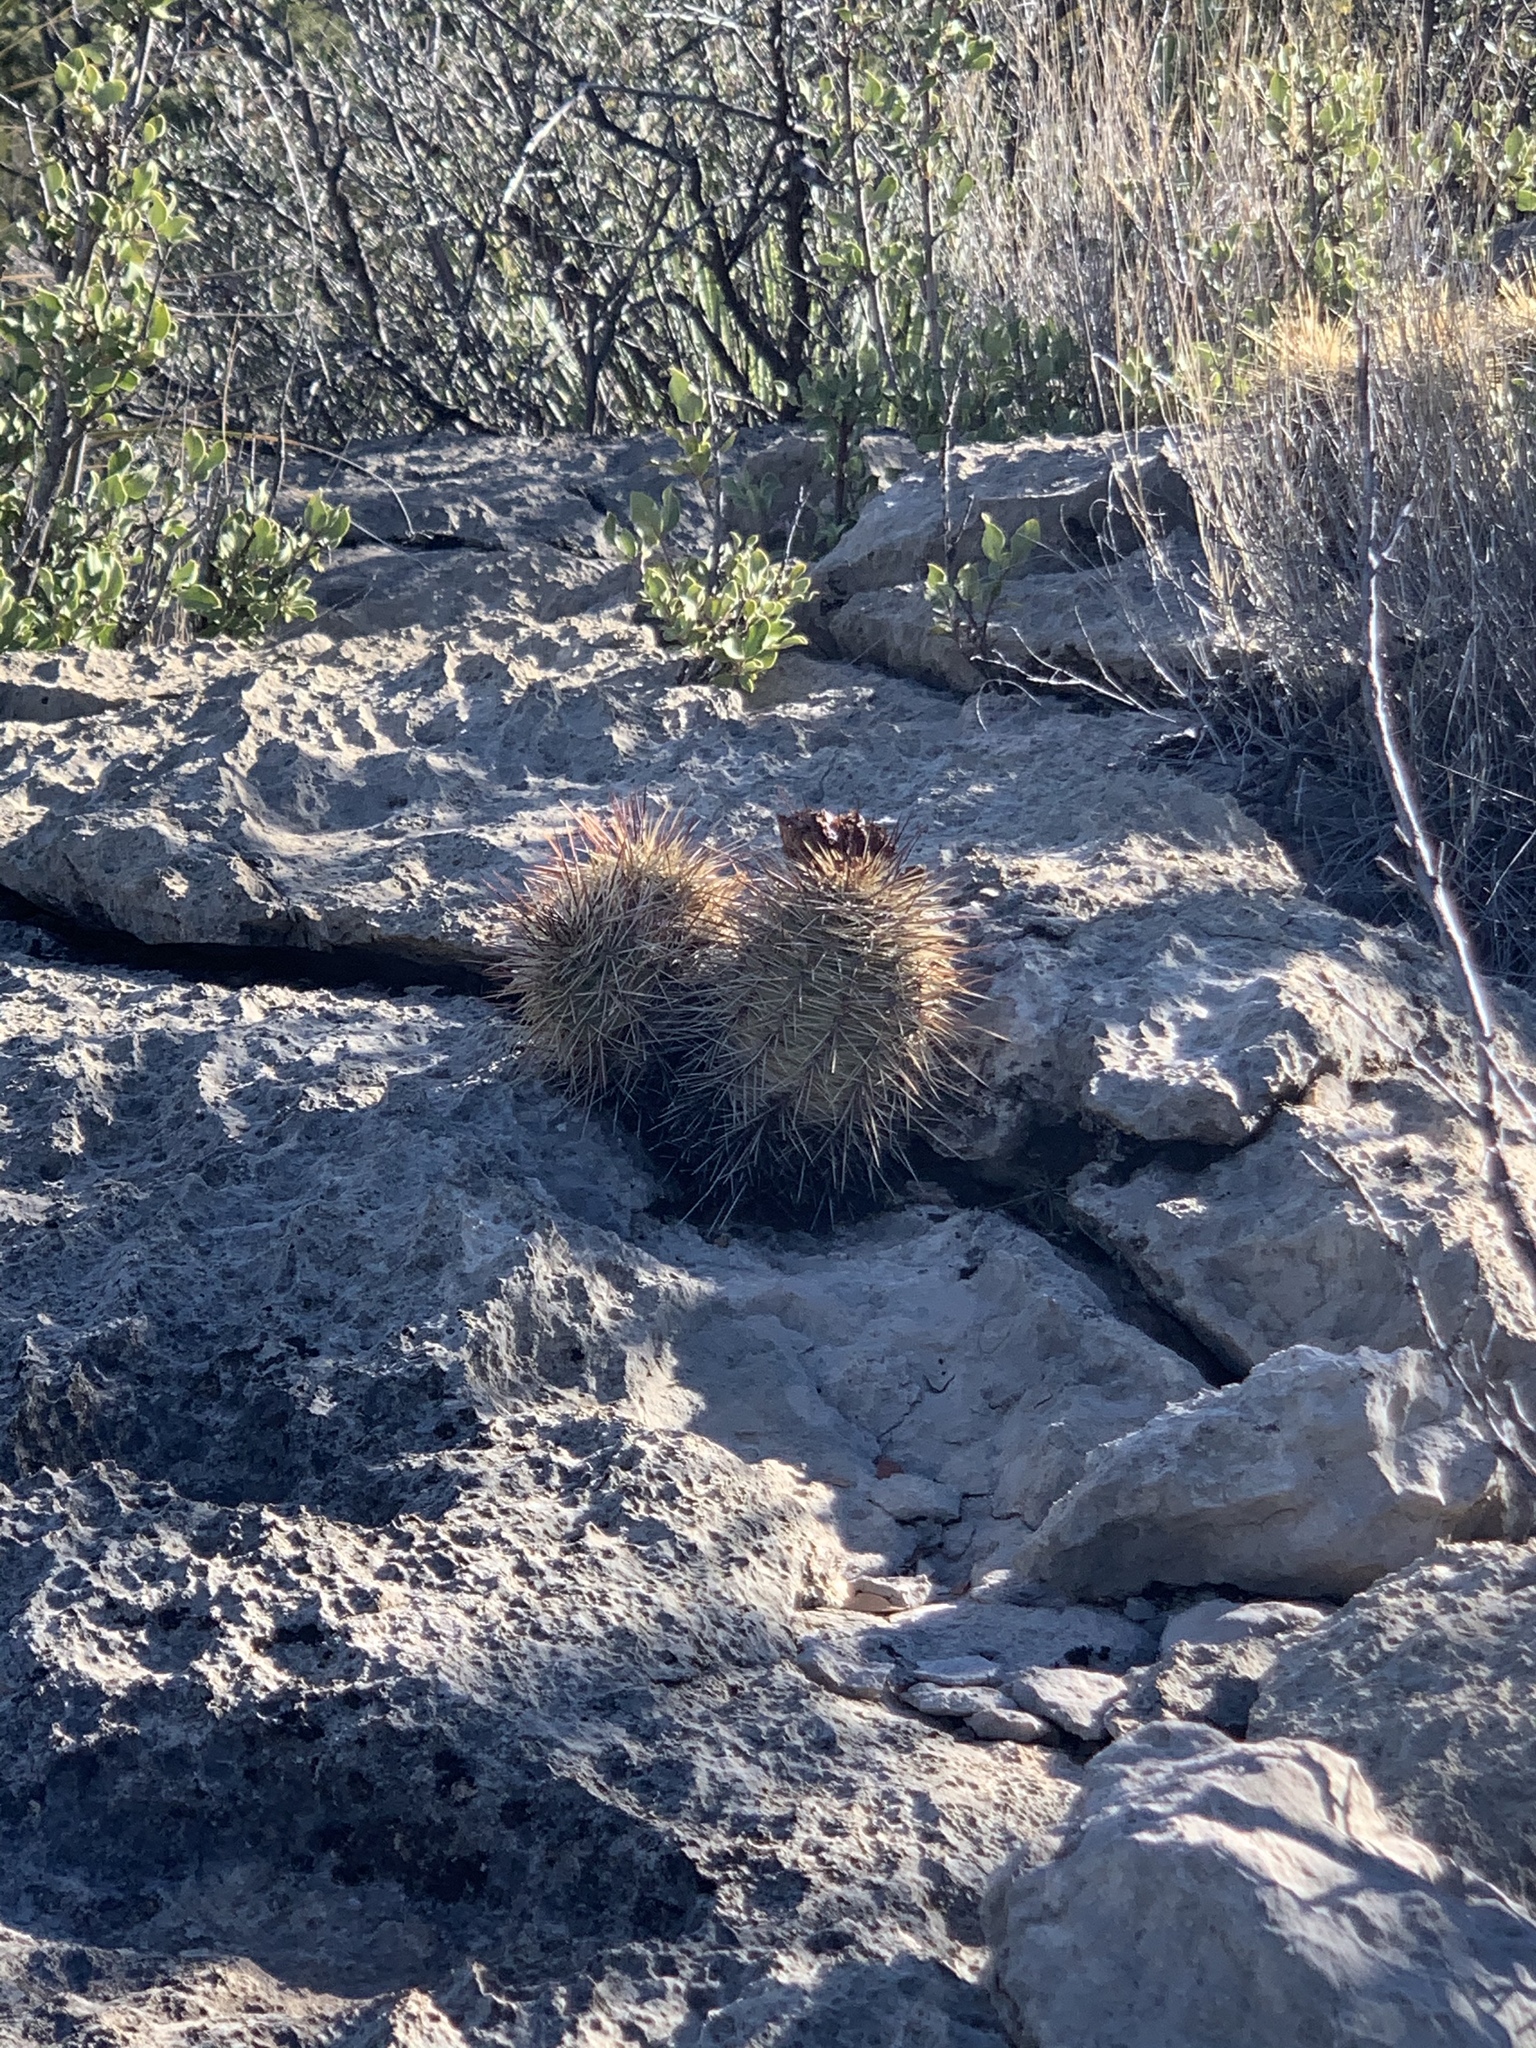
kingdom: Plantae
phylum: Tracheophyta
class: Magnoliopsida
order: Caryophyllales
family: Cactaceae
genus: Echinocereus
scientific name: Echinocereus coccineus
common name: Scarlet hedgehog cactus
